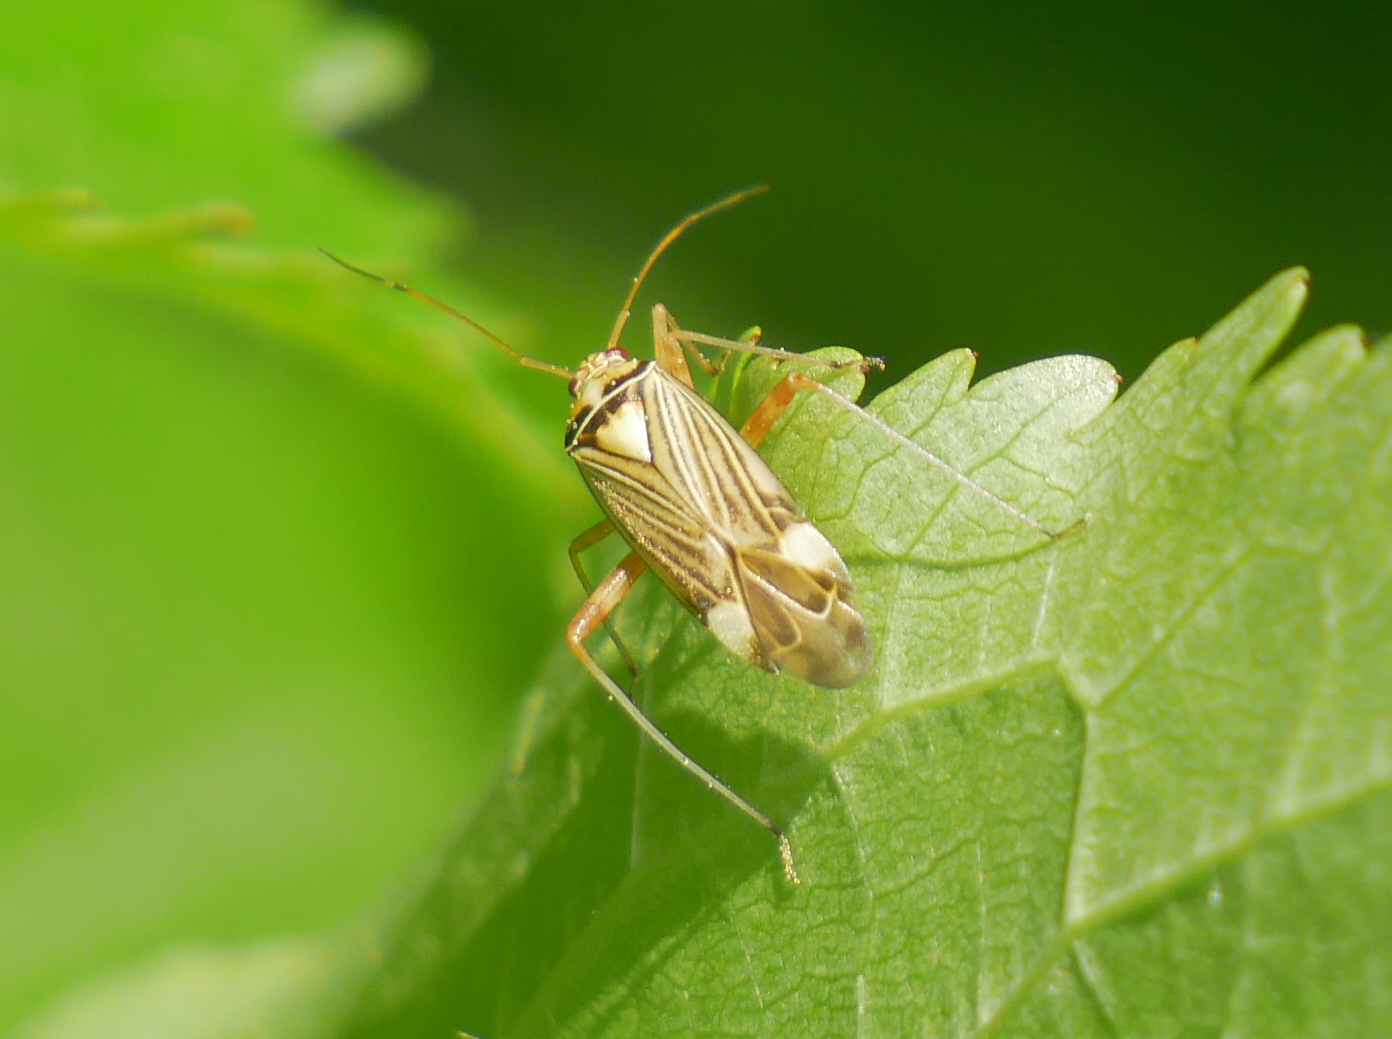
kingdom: Animalia
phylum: Arthropoda
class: Insecta
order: Hemiptera
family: Miridae
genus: Rhabdomiris
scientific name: Rhabdomiris striatellus
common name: Plant bug
